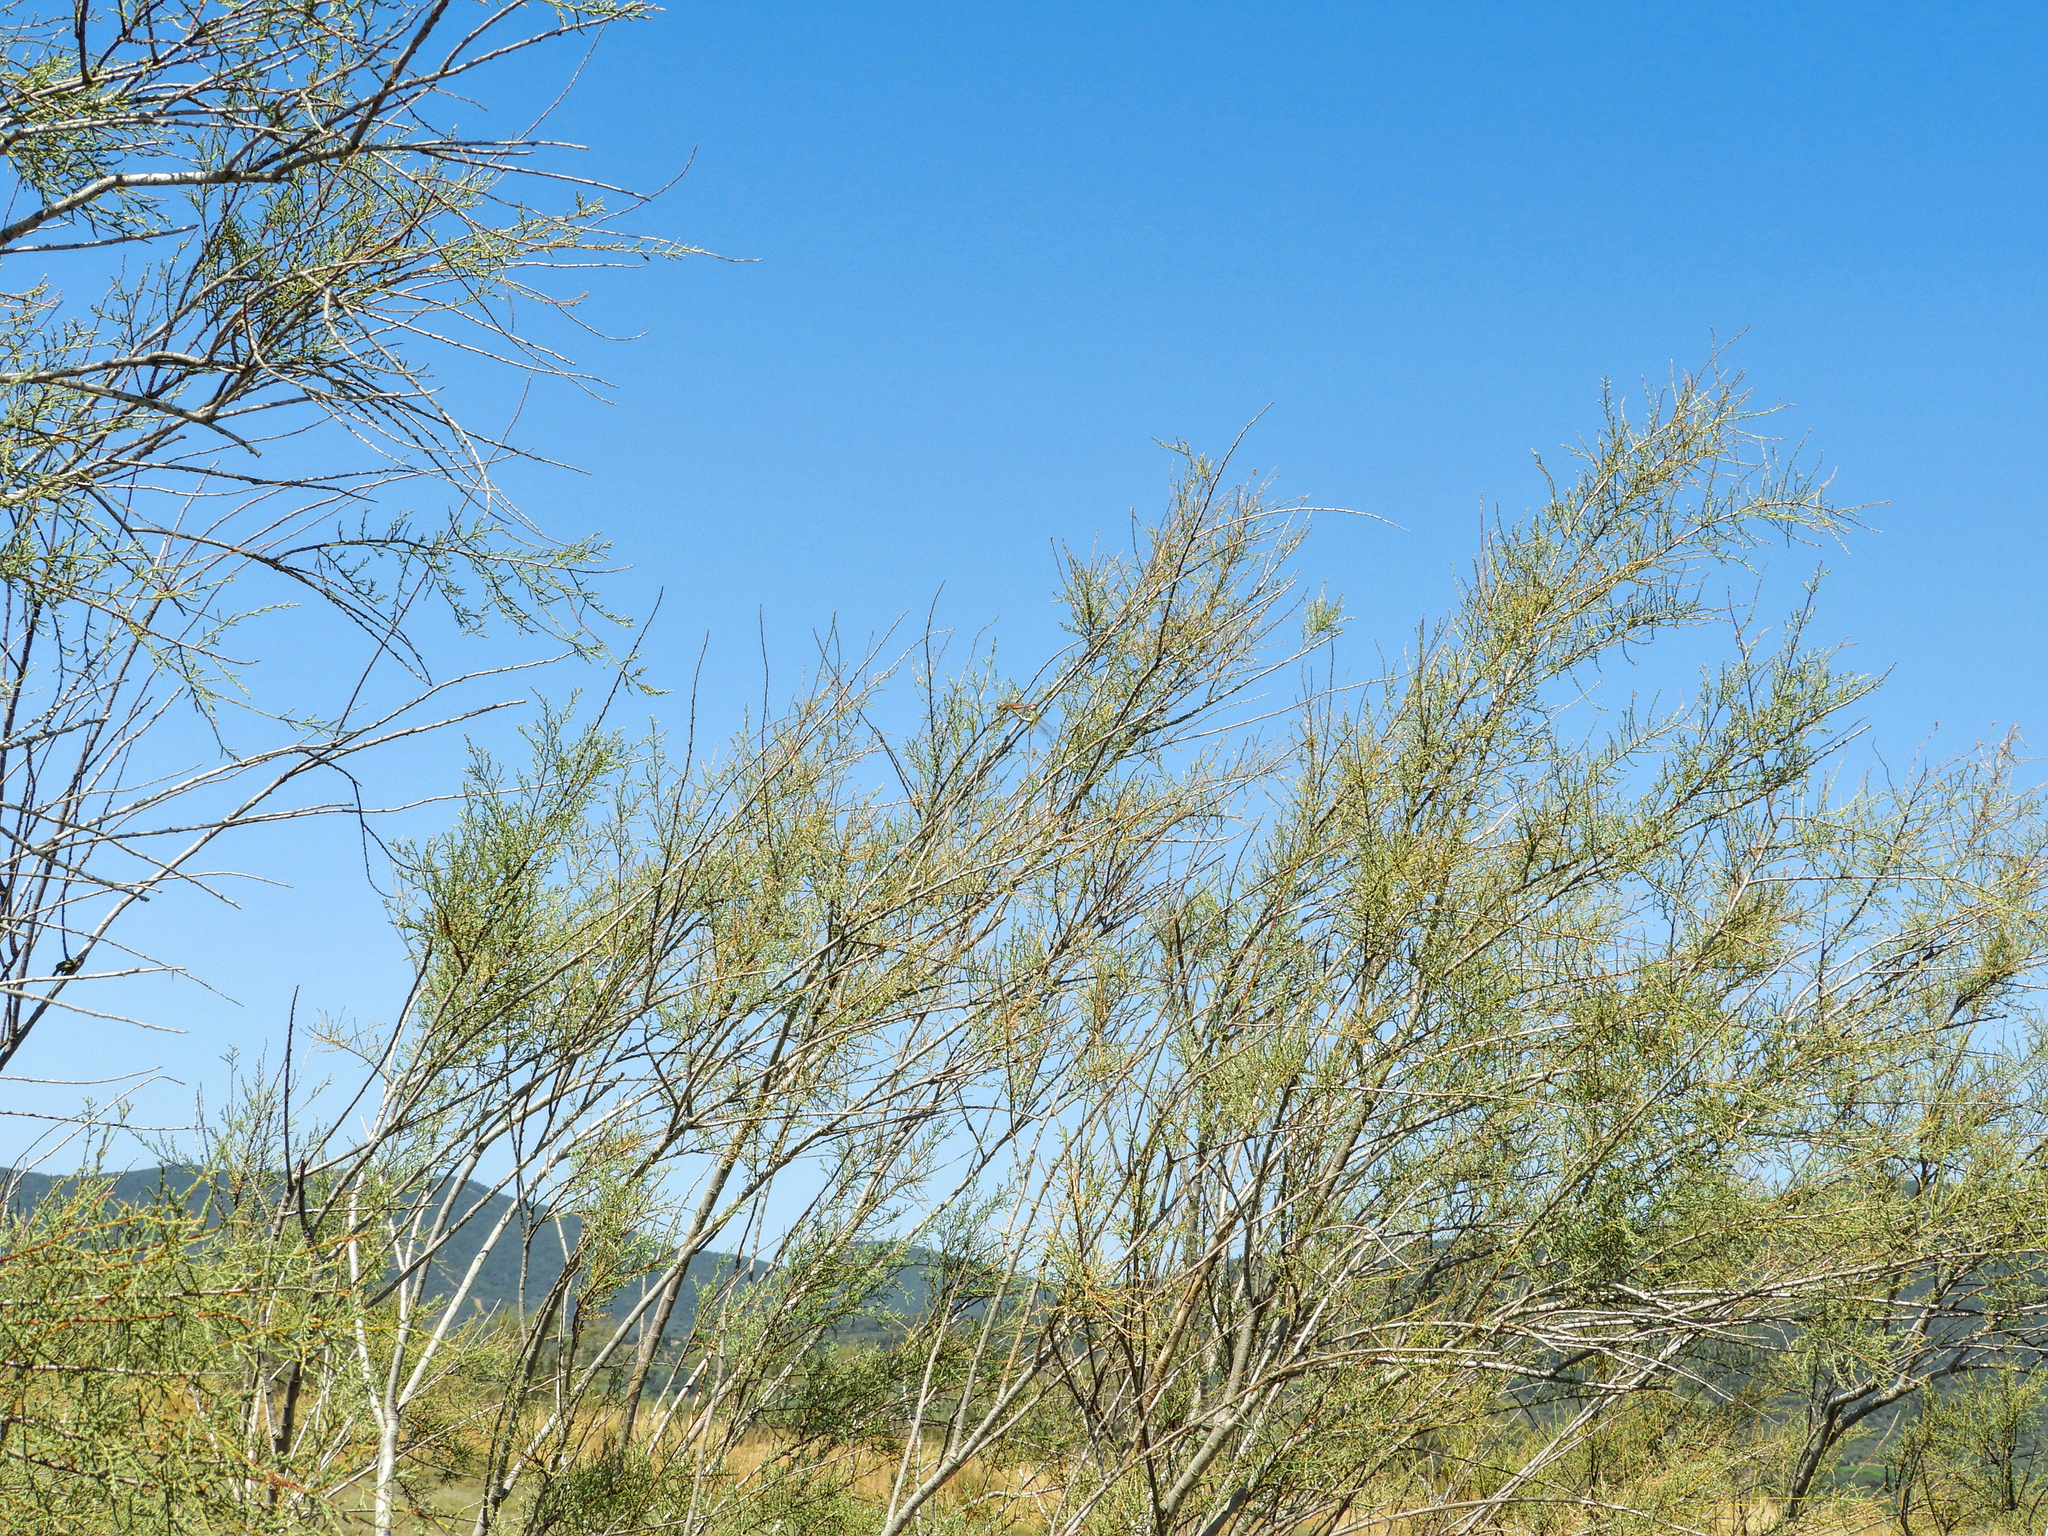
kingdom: Animalia
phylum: Arthropoda
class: Insecta
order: Odonata
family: Libellulidae
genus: Sympetrum
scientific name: Sympetrum fonscolombii
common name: Red-veined darter
